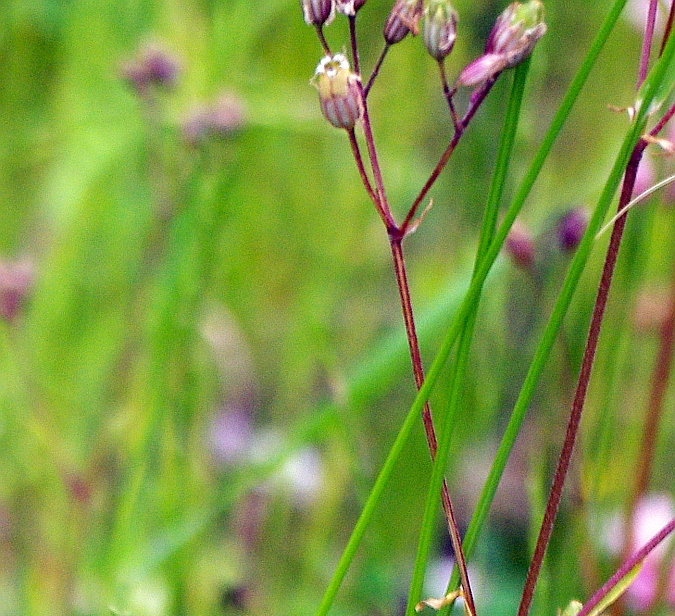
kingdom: Plantae
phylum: Tracheophyta
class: Magnoliopsida
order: Caryophyllales
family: Caryophyllaceae
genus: Silene
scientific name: Silene flos-cuculi
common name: Ragged-robin
